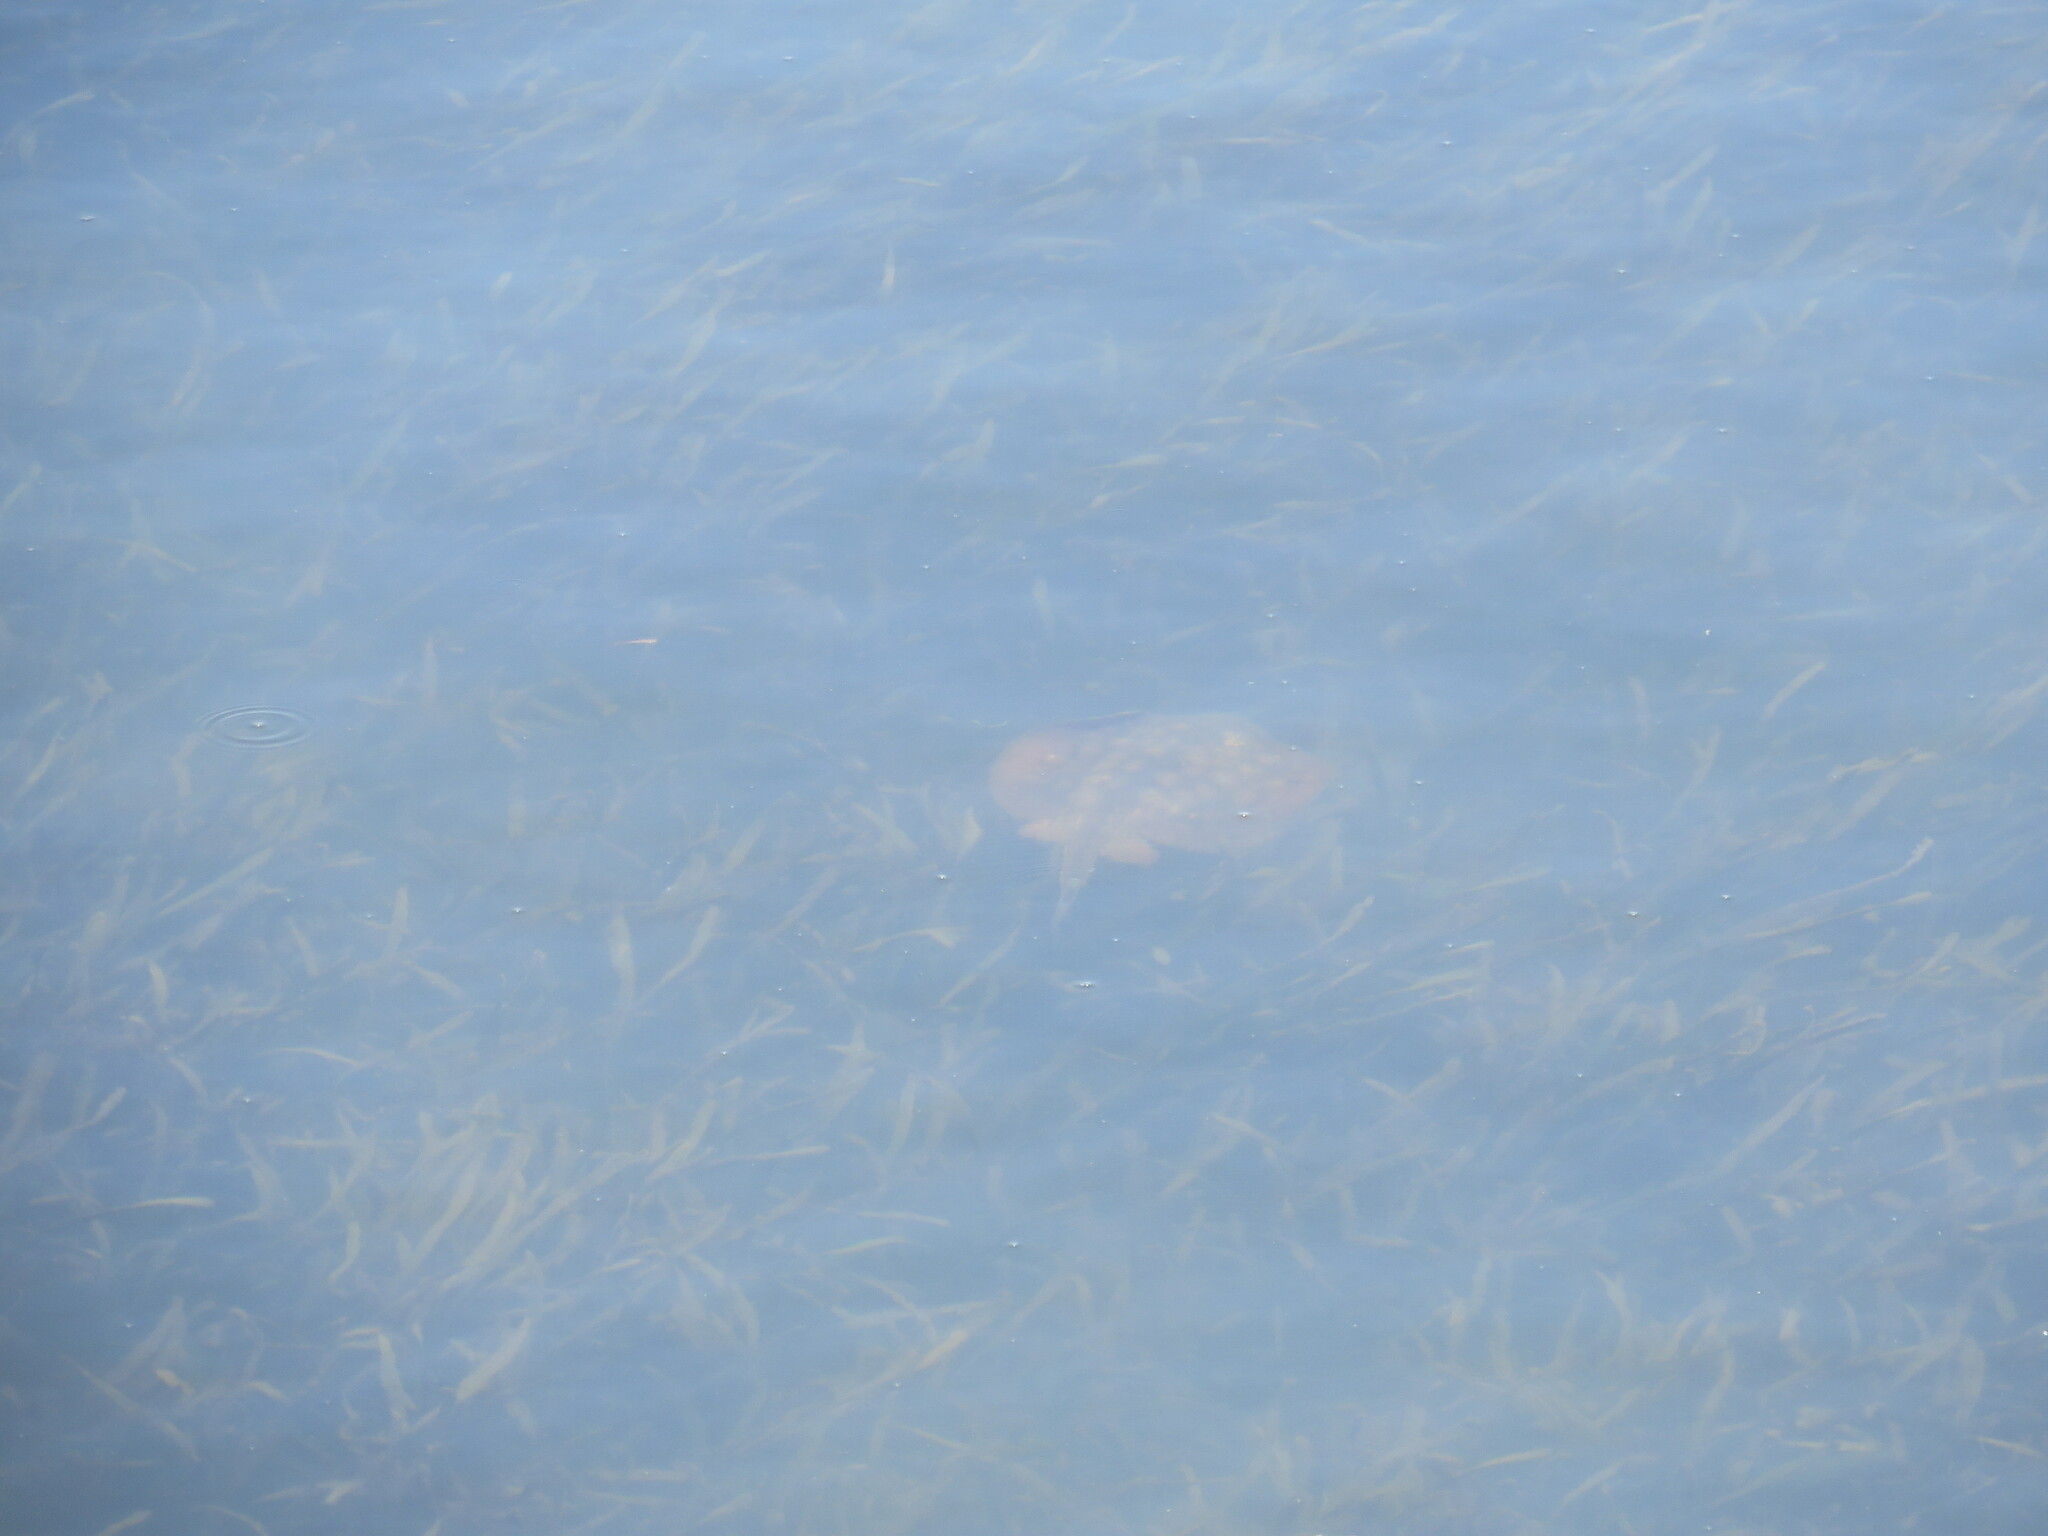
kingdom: Animalia
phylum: Chordata
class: Elasmobranchii
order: Myliobatiformes
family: Urolophidae
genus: Urolophus
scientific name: Urolophus halleri
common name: Round stingray
